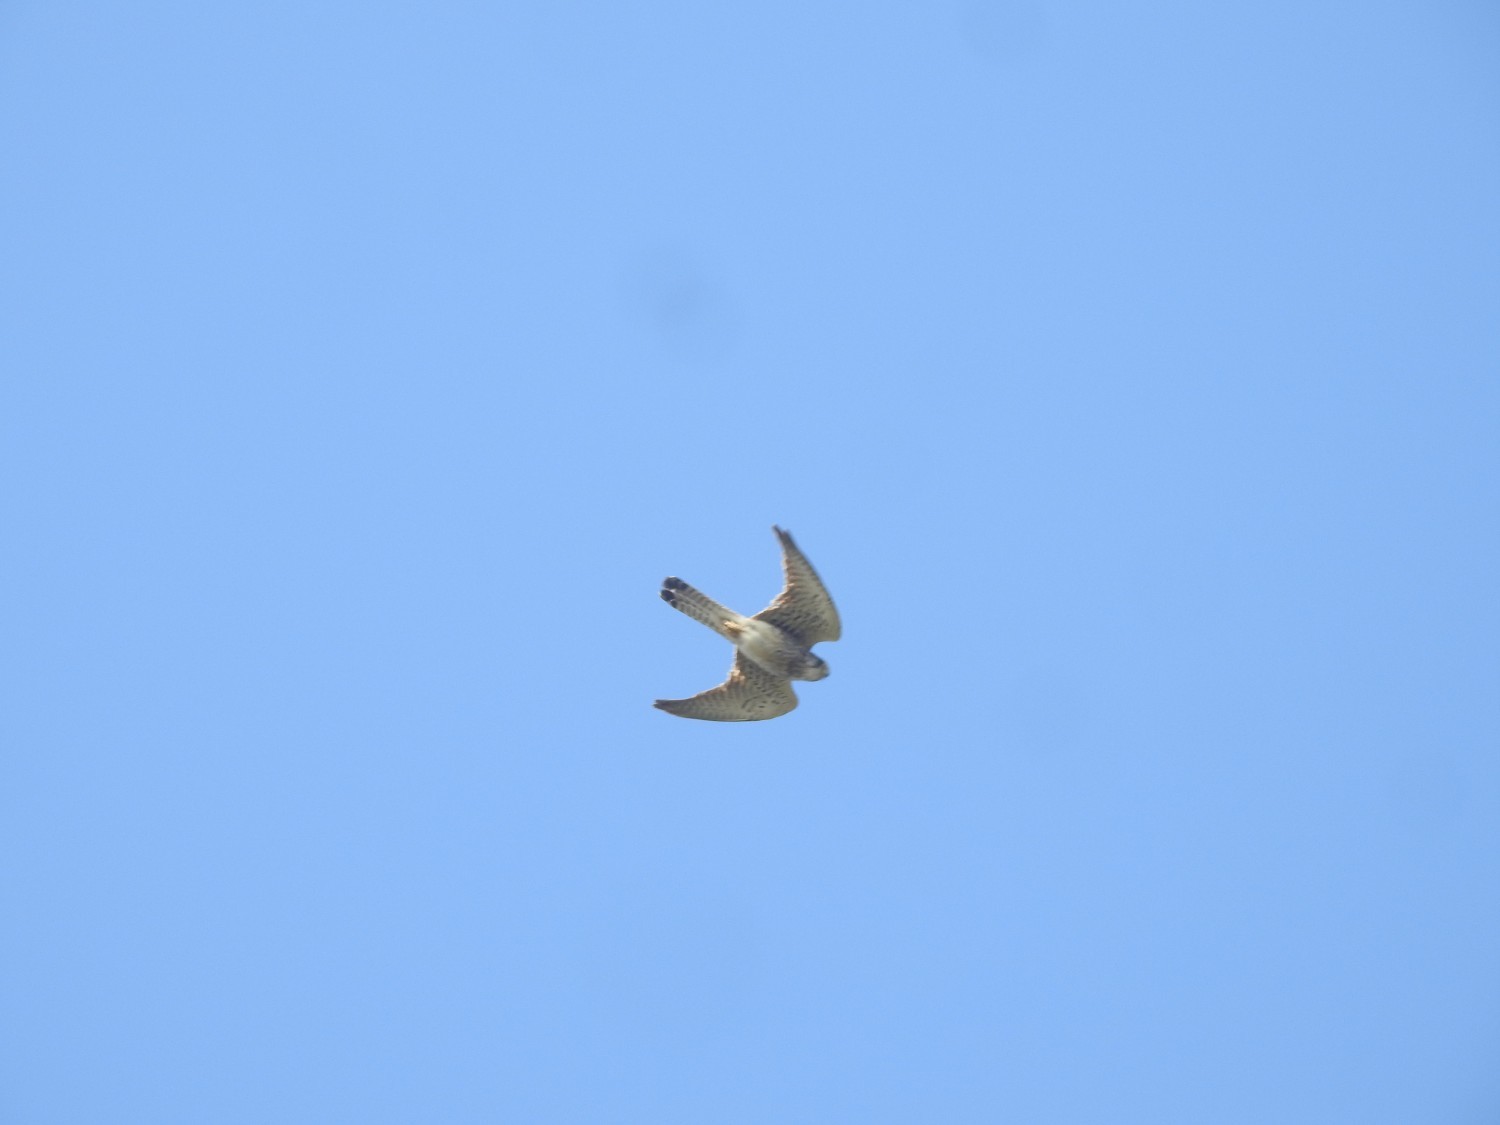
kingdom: Animalia
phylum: Chordata
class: Aves
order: Falconiformes
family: Falconidae
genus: Falco
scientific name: Falco tinnunculus
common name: Common kestrel
